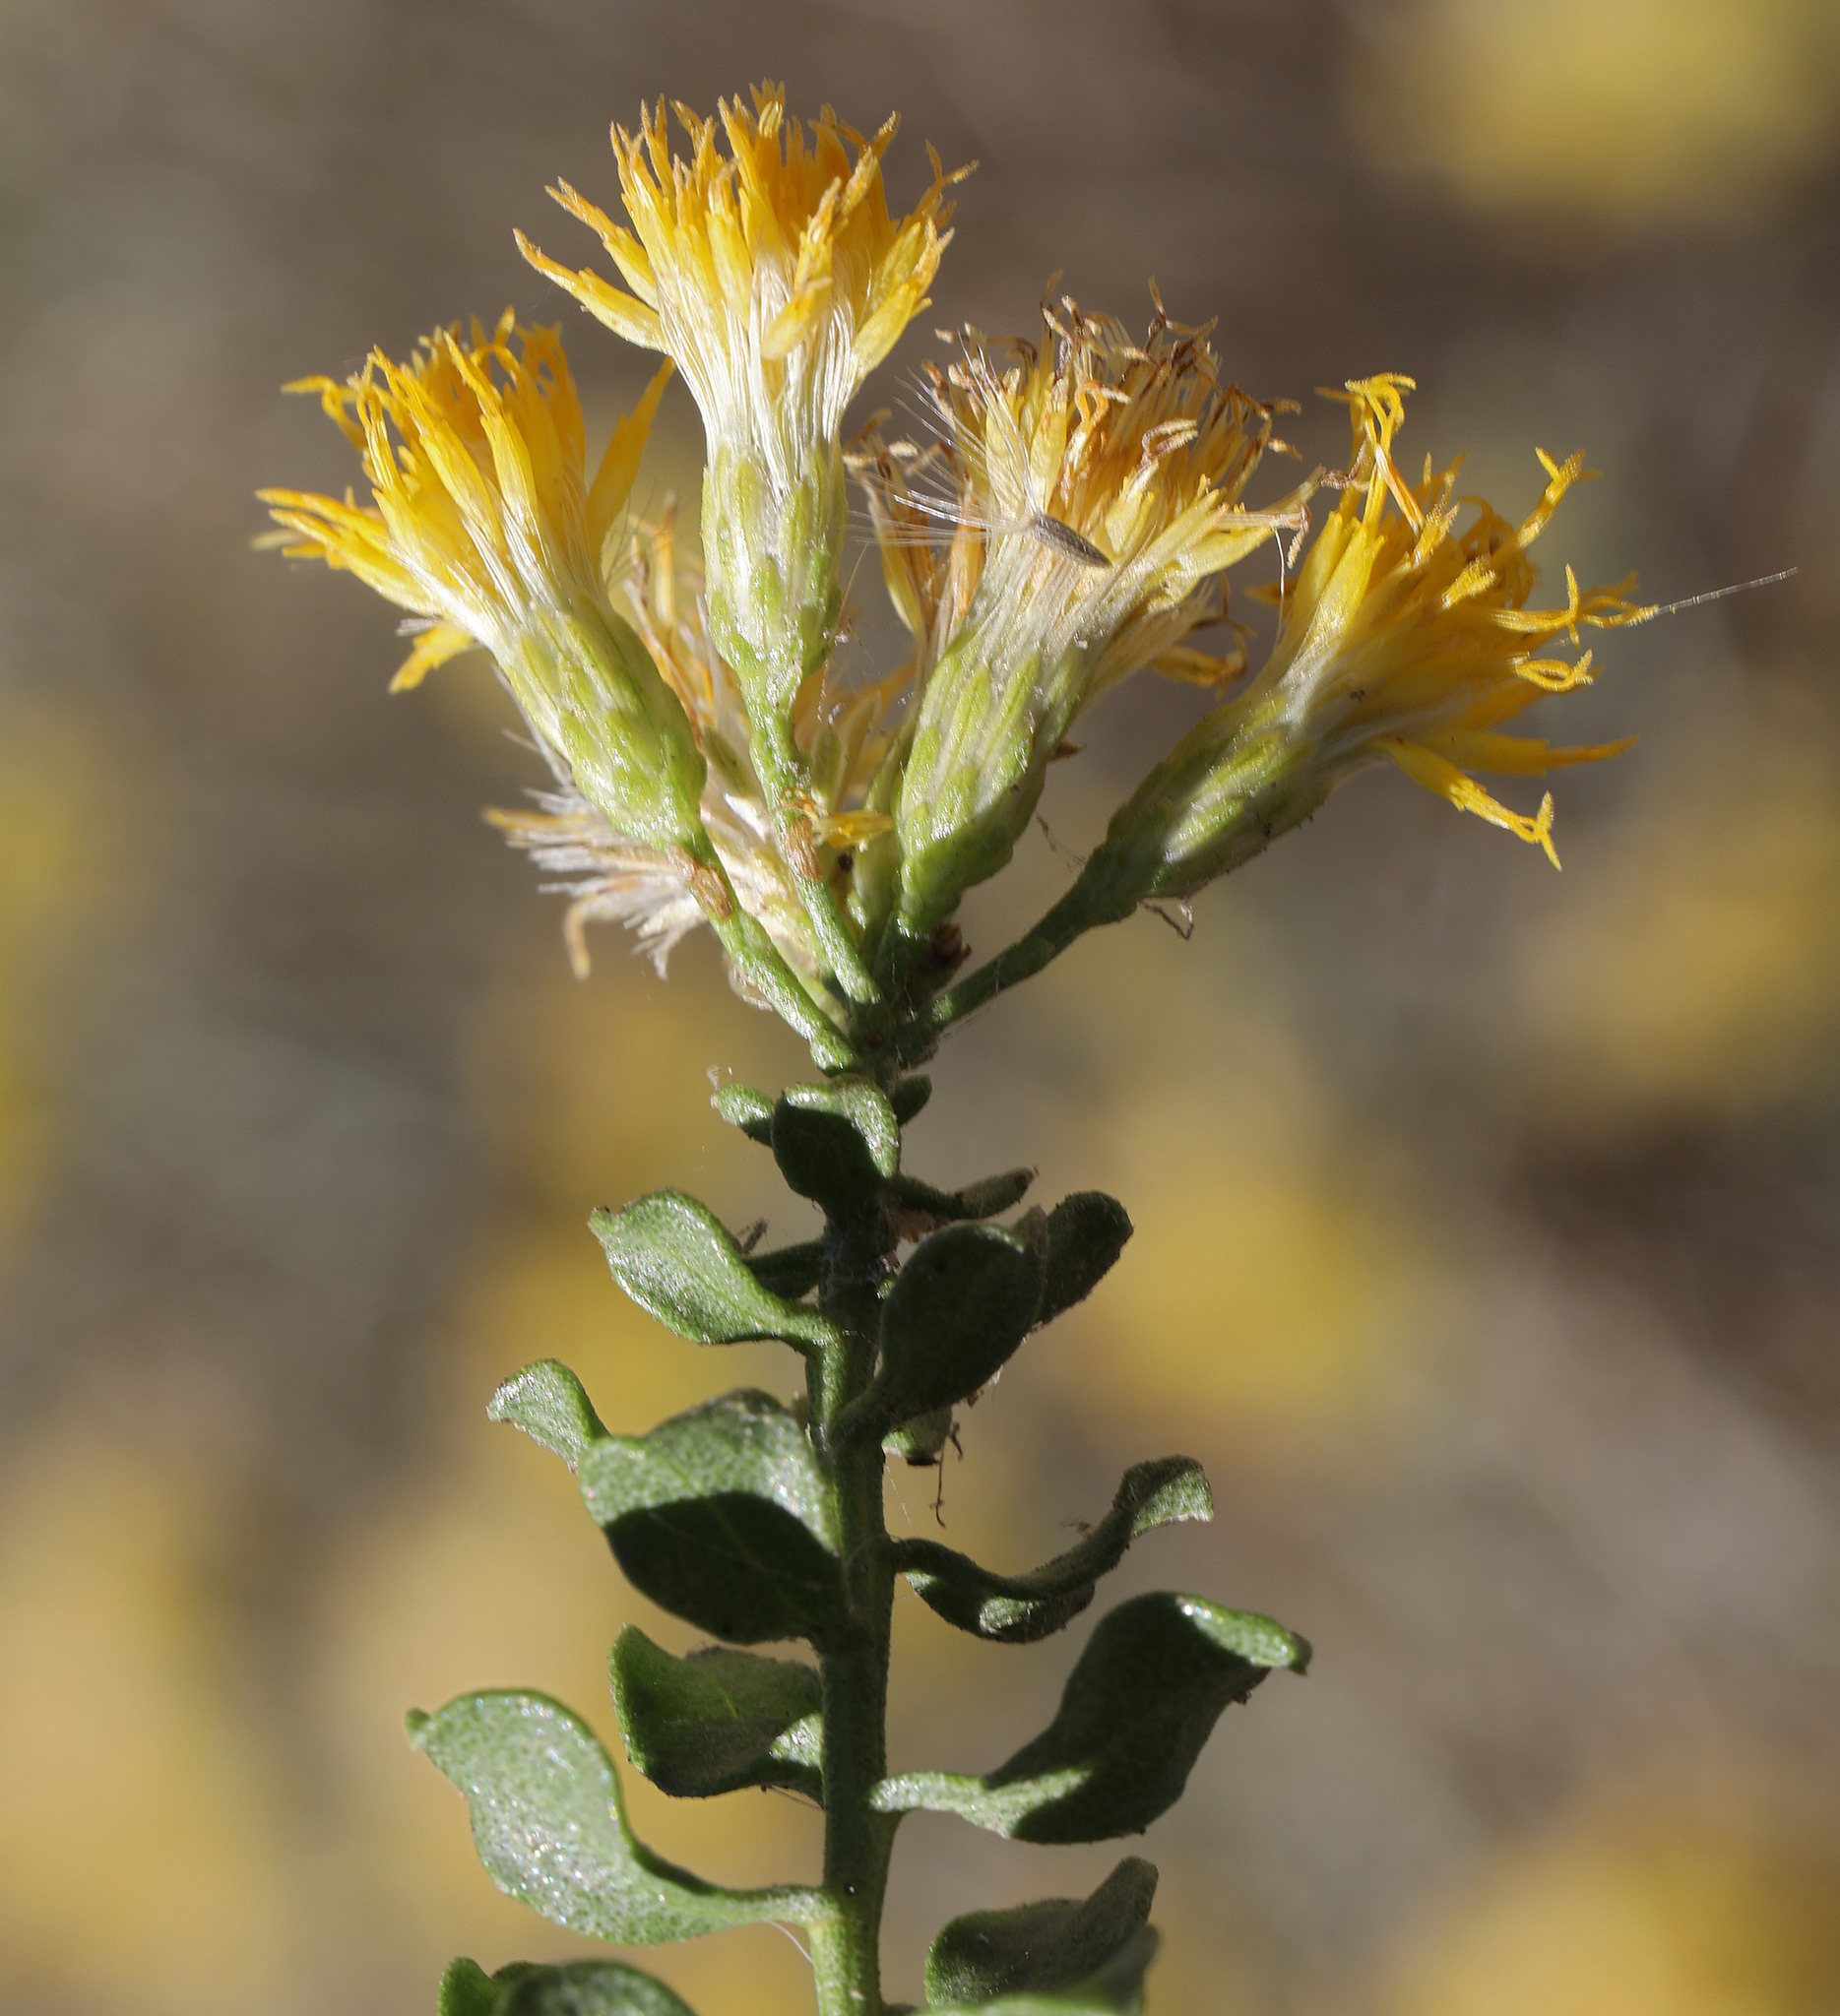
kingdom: Plantae
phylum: Tracheophyta
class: Magnoliopsida
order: Asterales
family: Asteraceae
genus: Ericameria
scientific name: Ericameria cuneata
